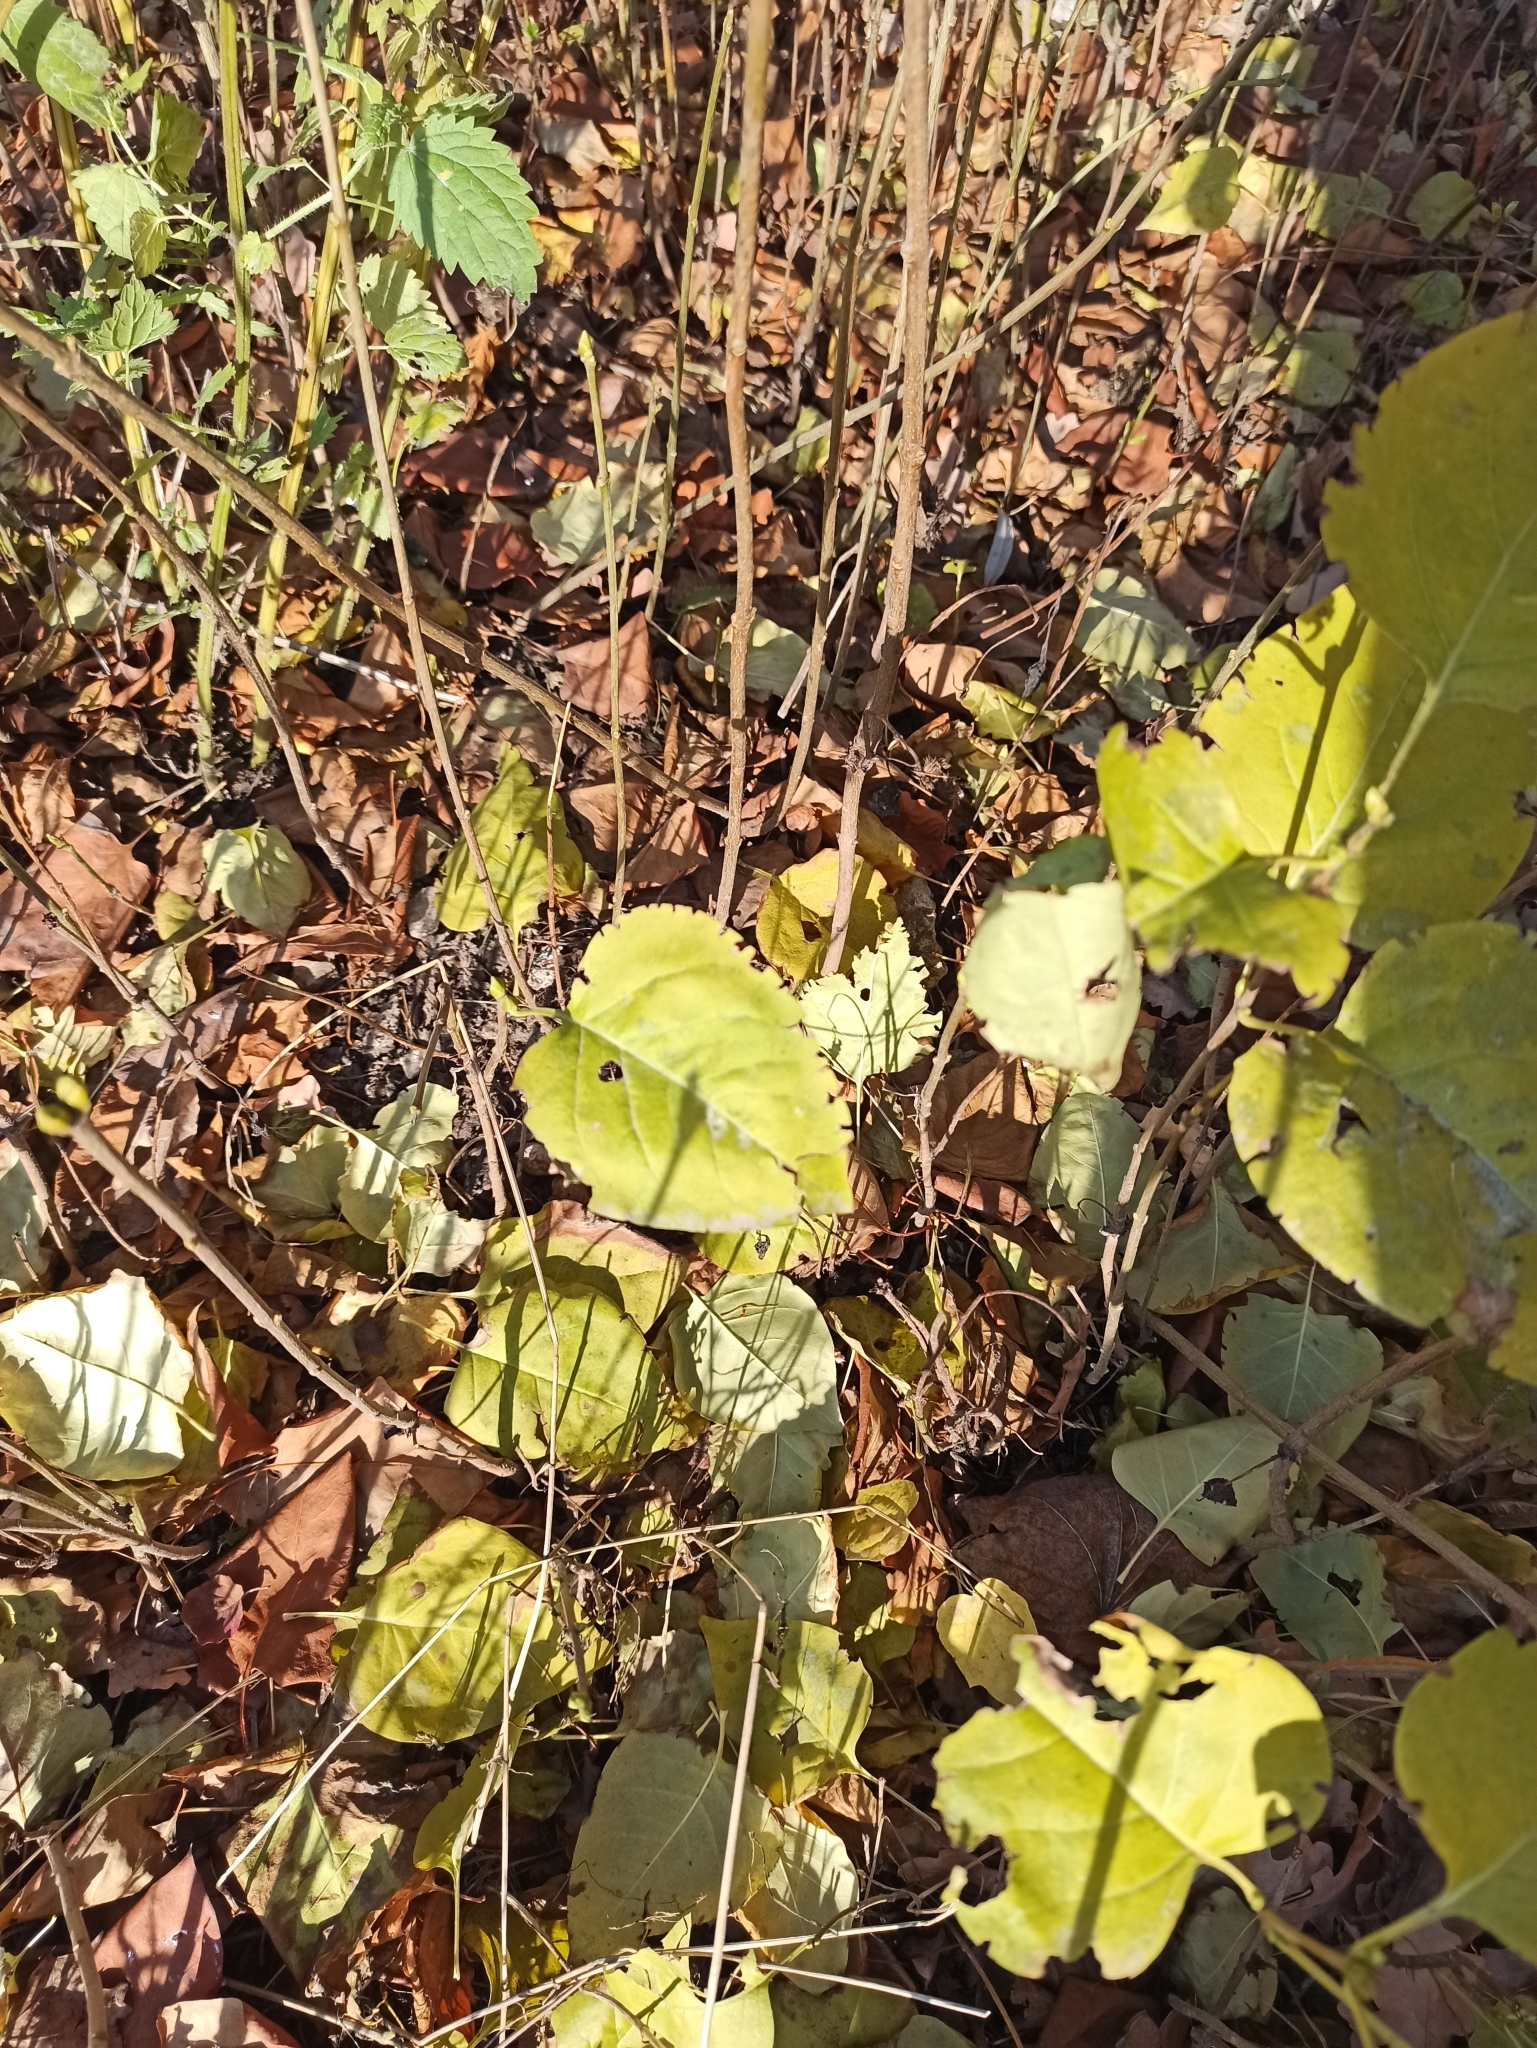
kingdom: Plantae
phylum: Tracheophyta
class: Magnoliopsida
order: Lamiales
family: Oleaceae
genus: Syringa
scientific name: Syringa vulgaris
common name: Common lilac
